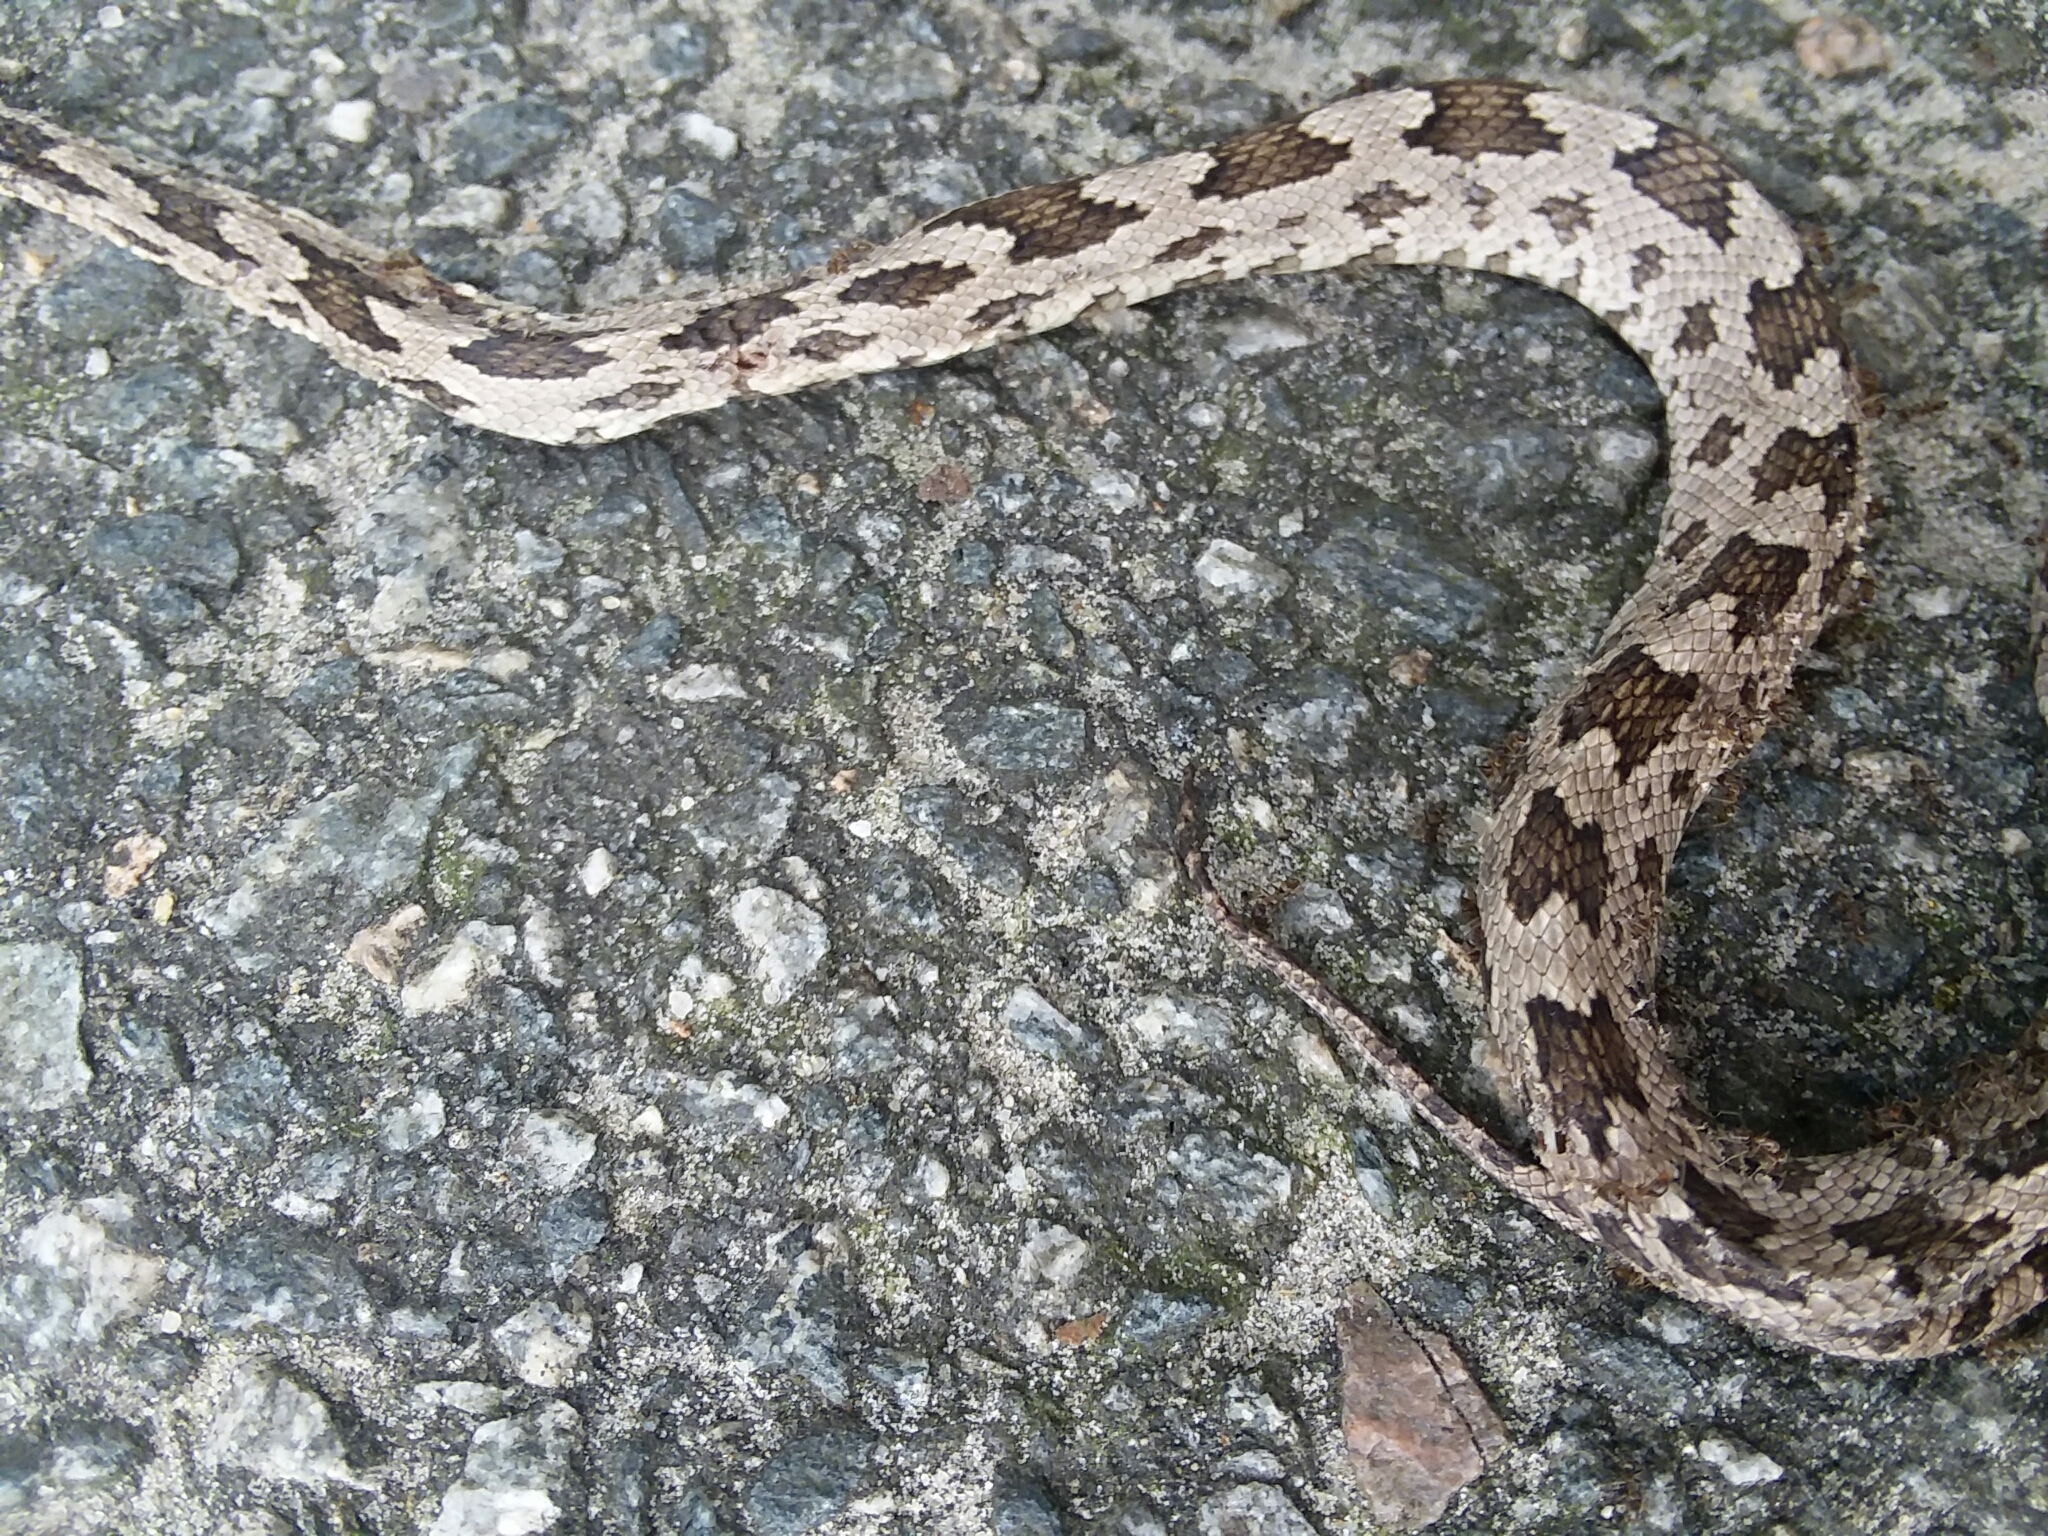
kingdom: Animalia
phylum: Chordata
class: Squamata
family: Colubridae
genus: Pantherophis
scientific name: Pantherophis alleghaniensis
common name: Eastern rat snake
